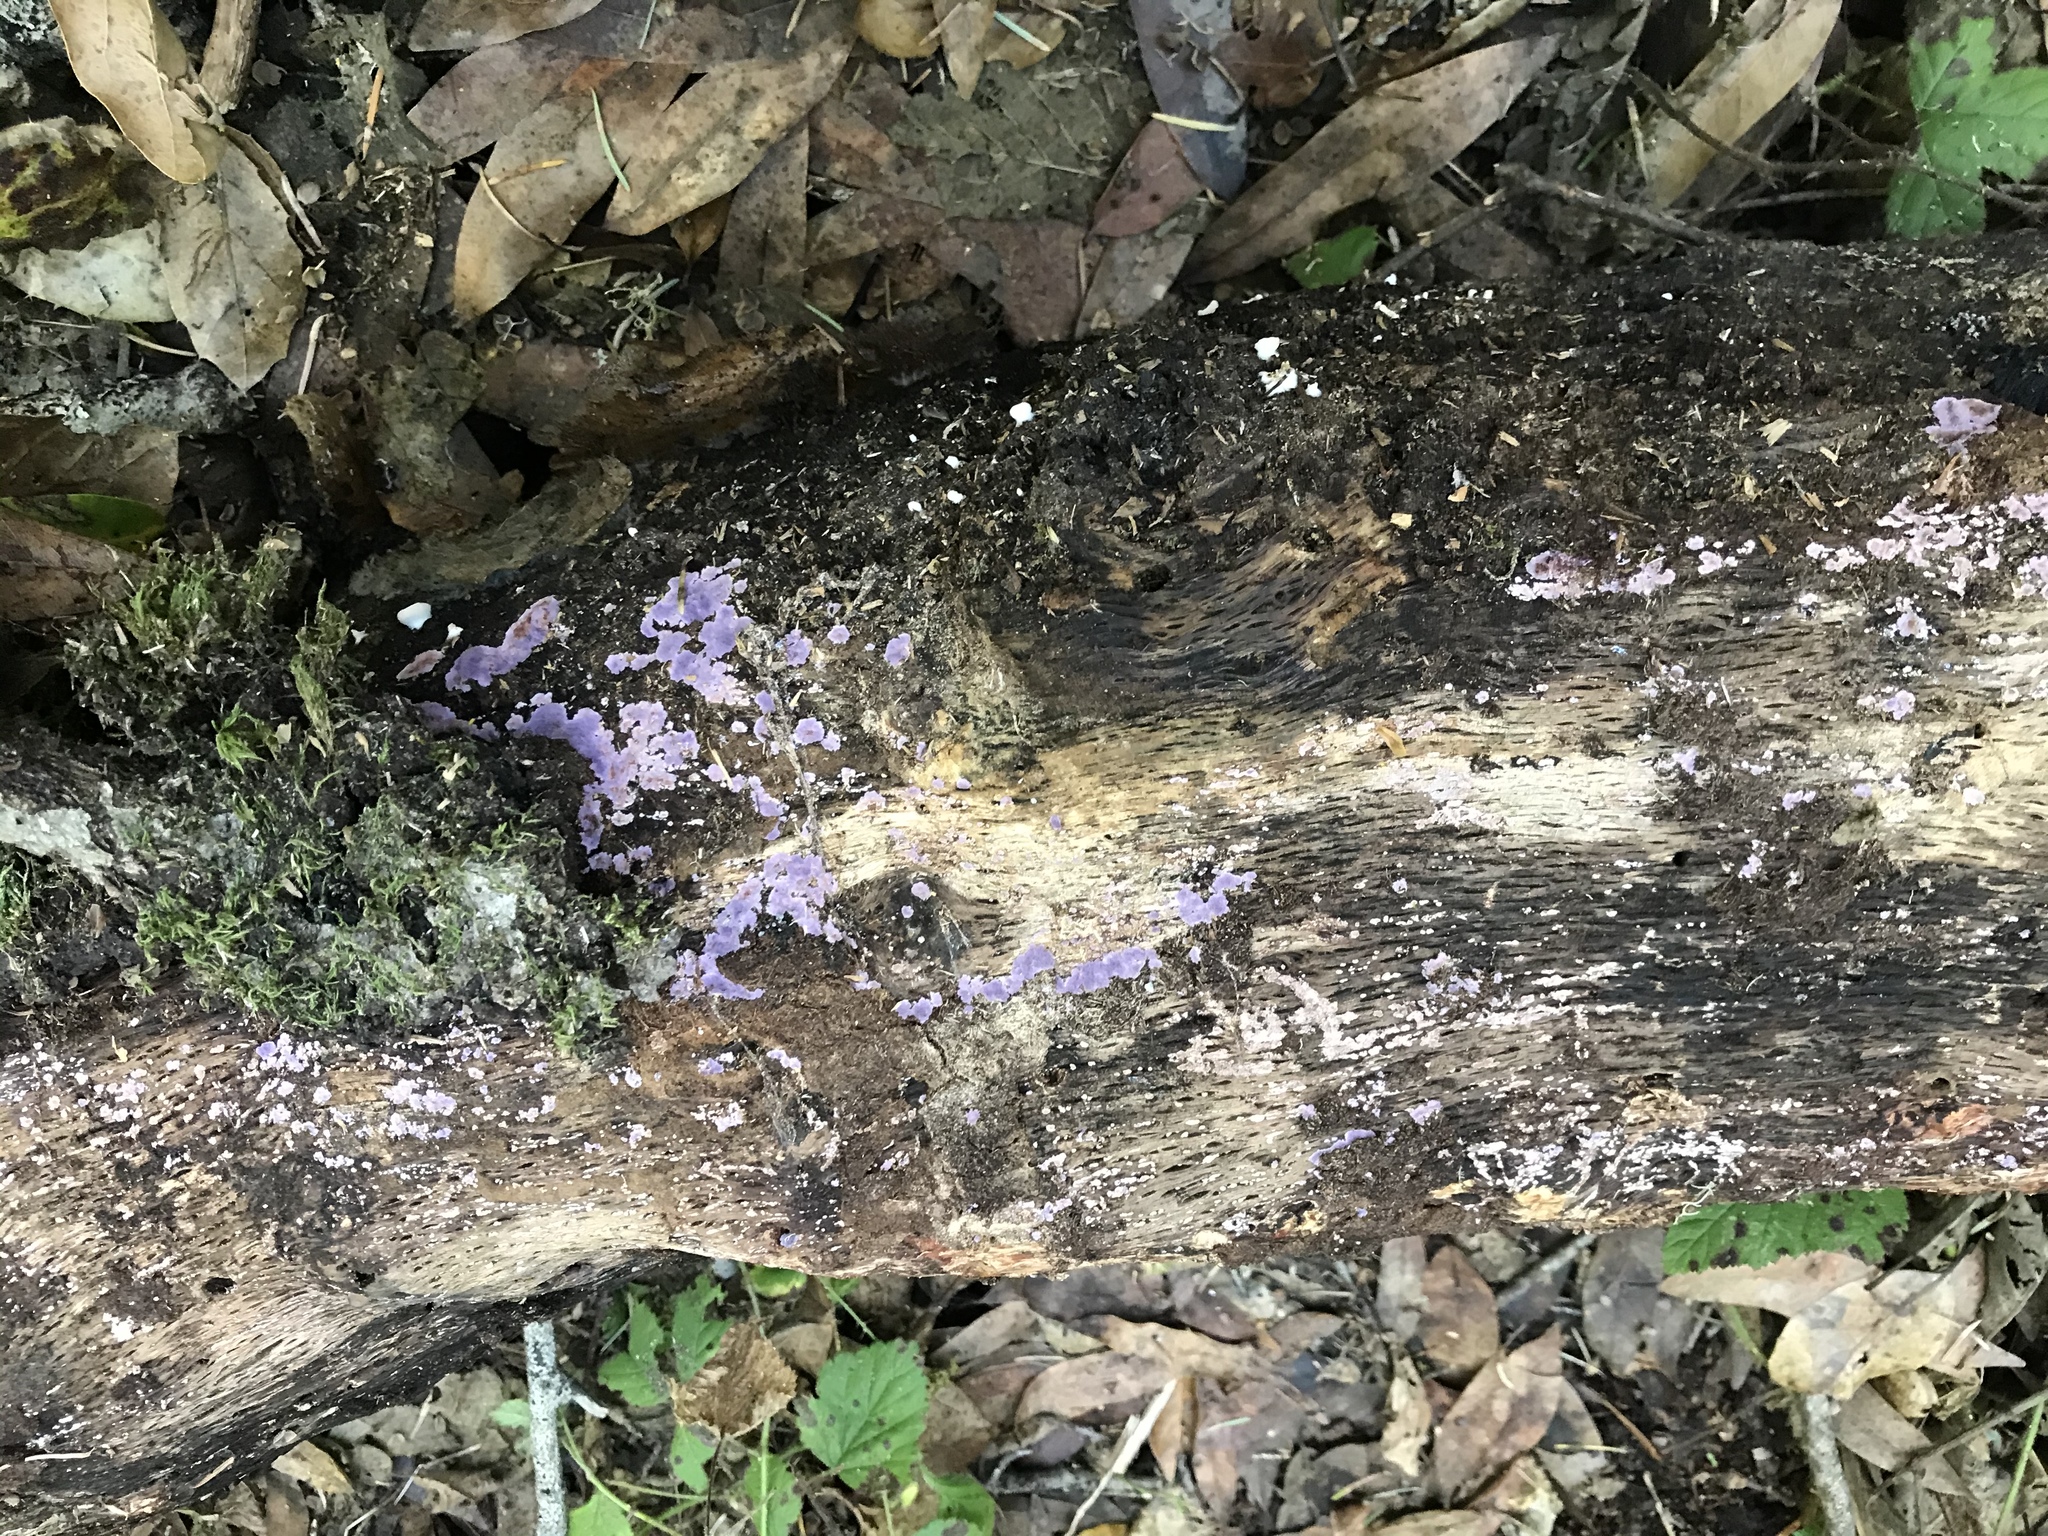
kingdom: Fungi
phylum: Basidiomycota
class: Agaricomycetes
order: Corticiales
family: Punctulariaceae
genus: Punctularia
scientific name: Punctularia atropurpurascens
